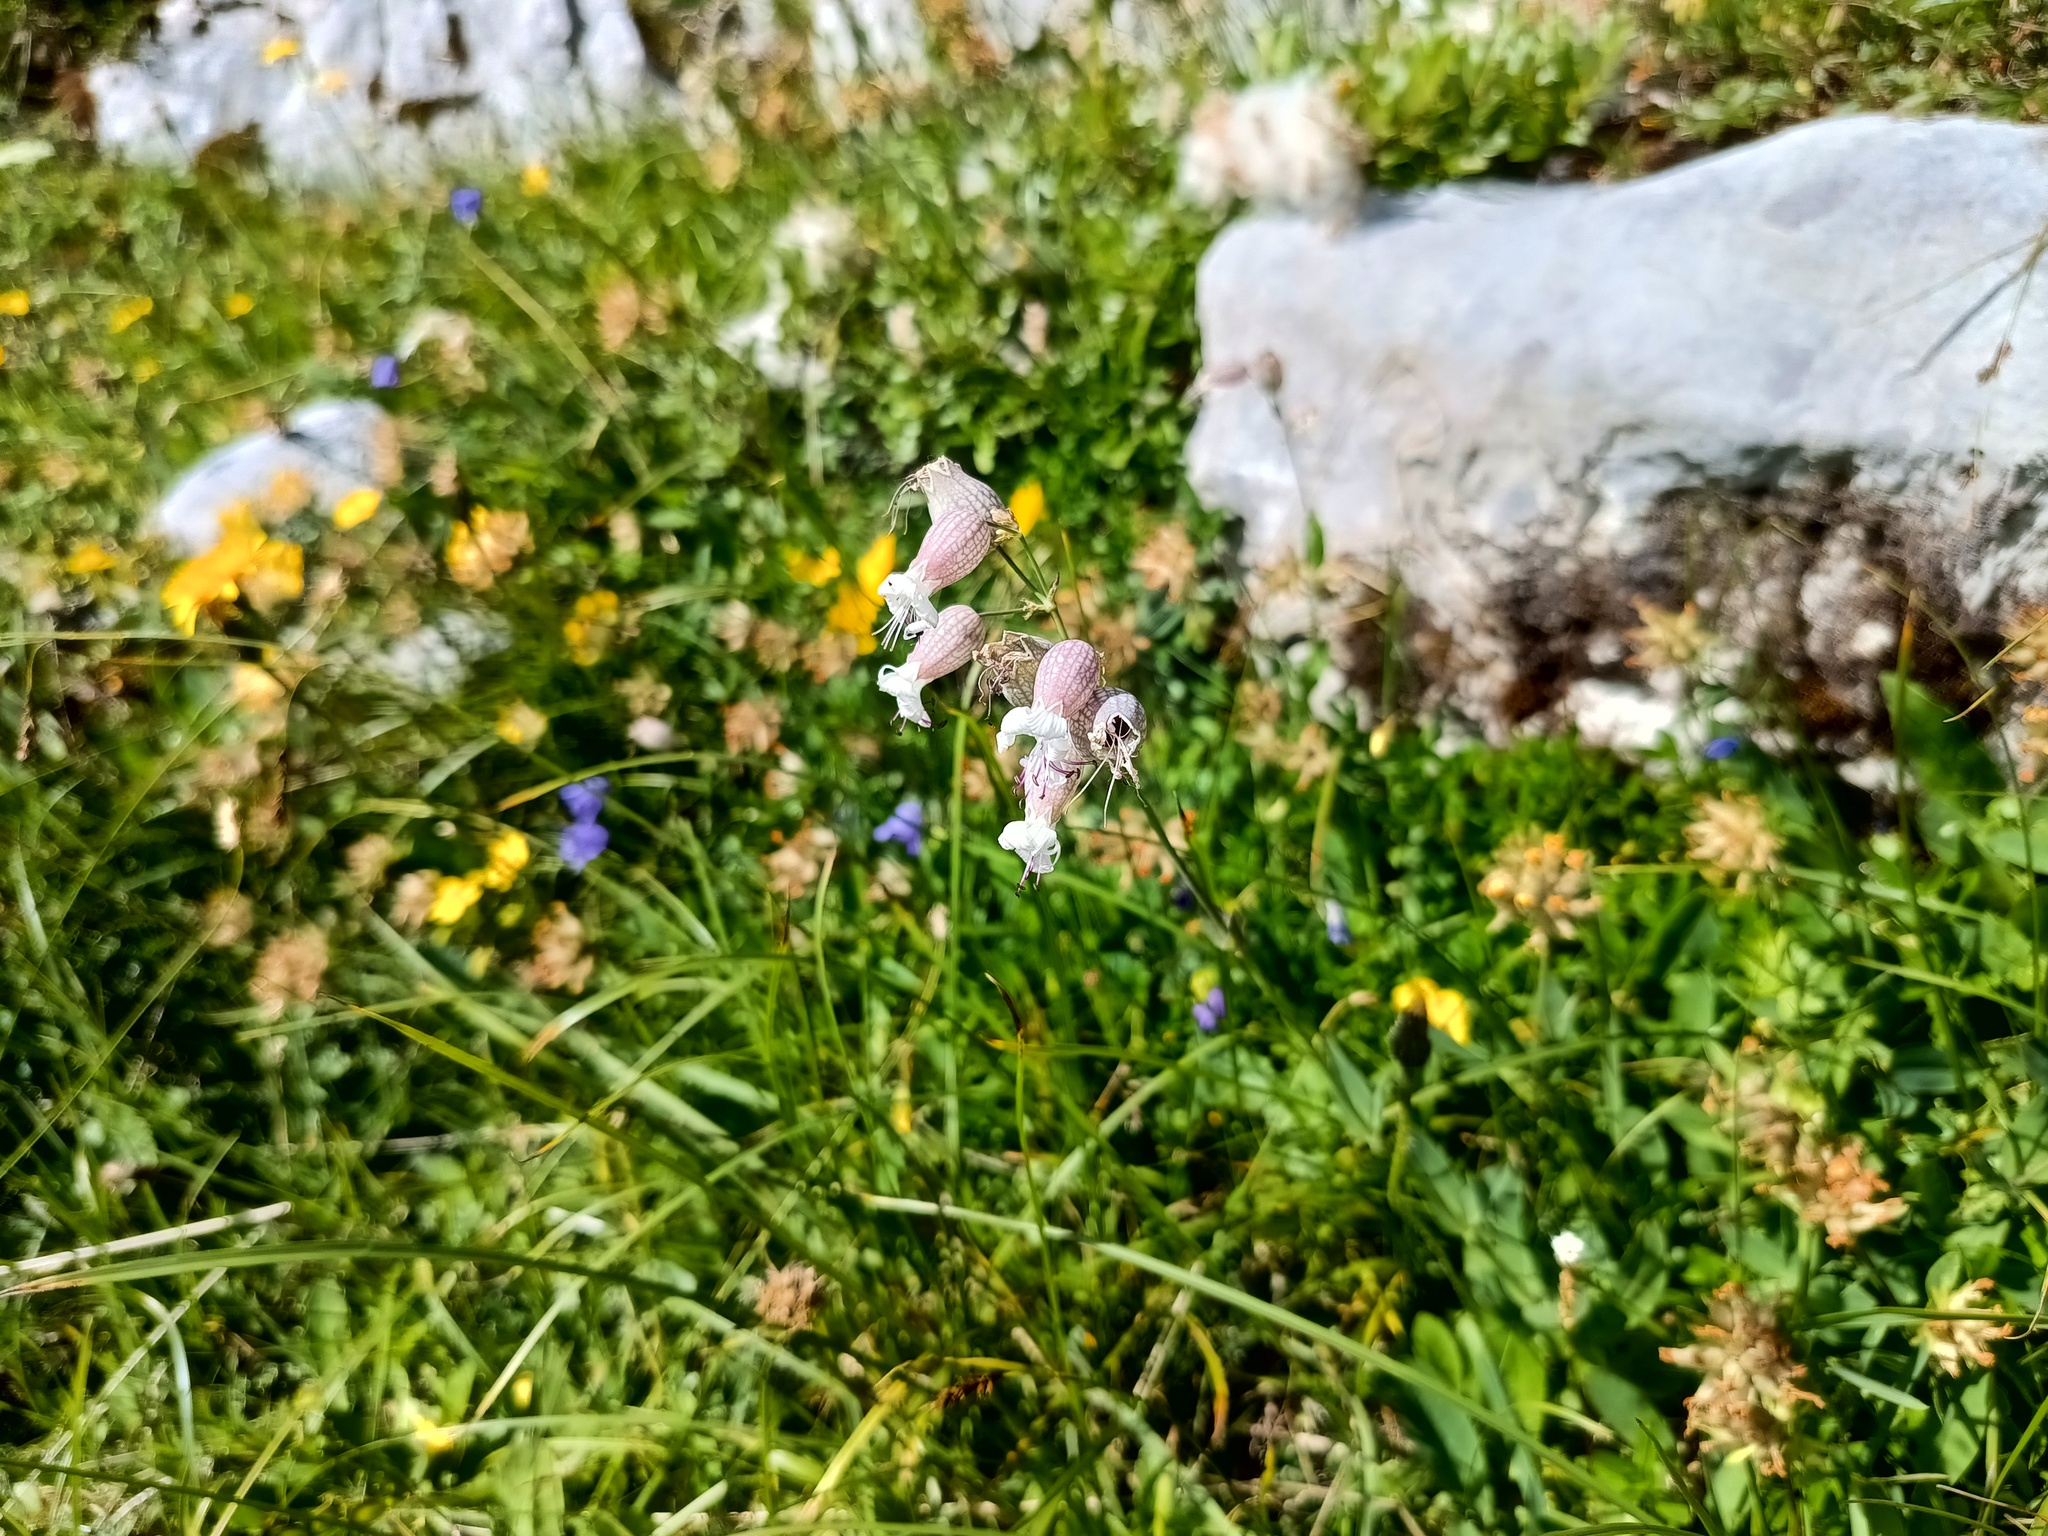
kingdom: Plantae
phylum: Tracheophyta
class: Magnoliopsida
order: Caryophyllales
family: Caryophyllaceae
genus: Silene
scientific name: Silene vulgaris
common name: Bladder campion
